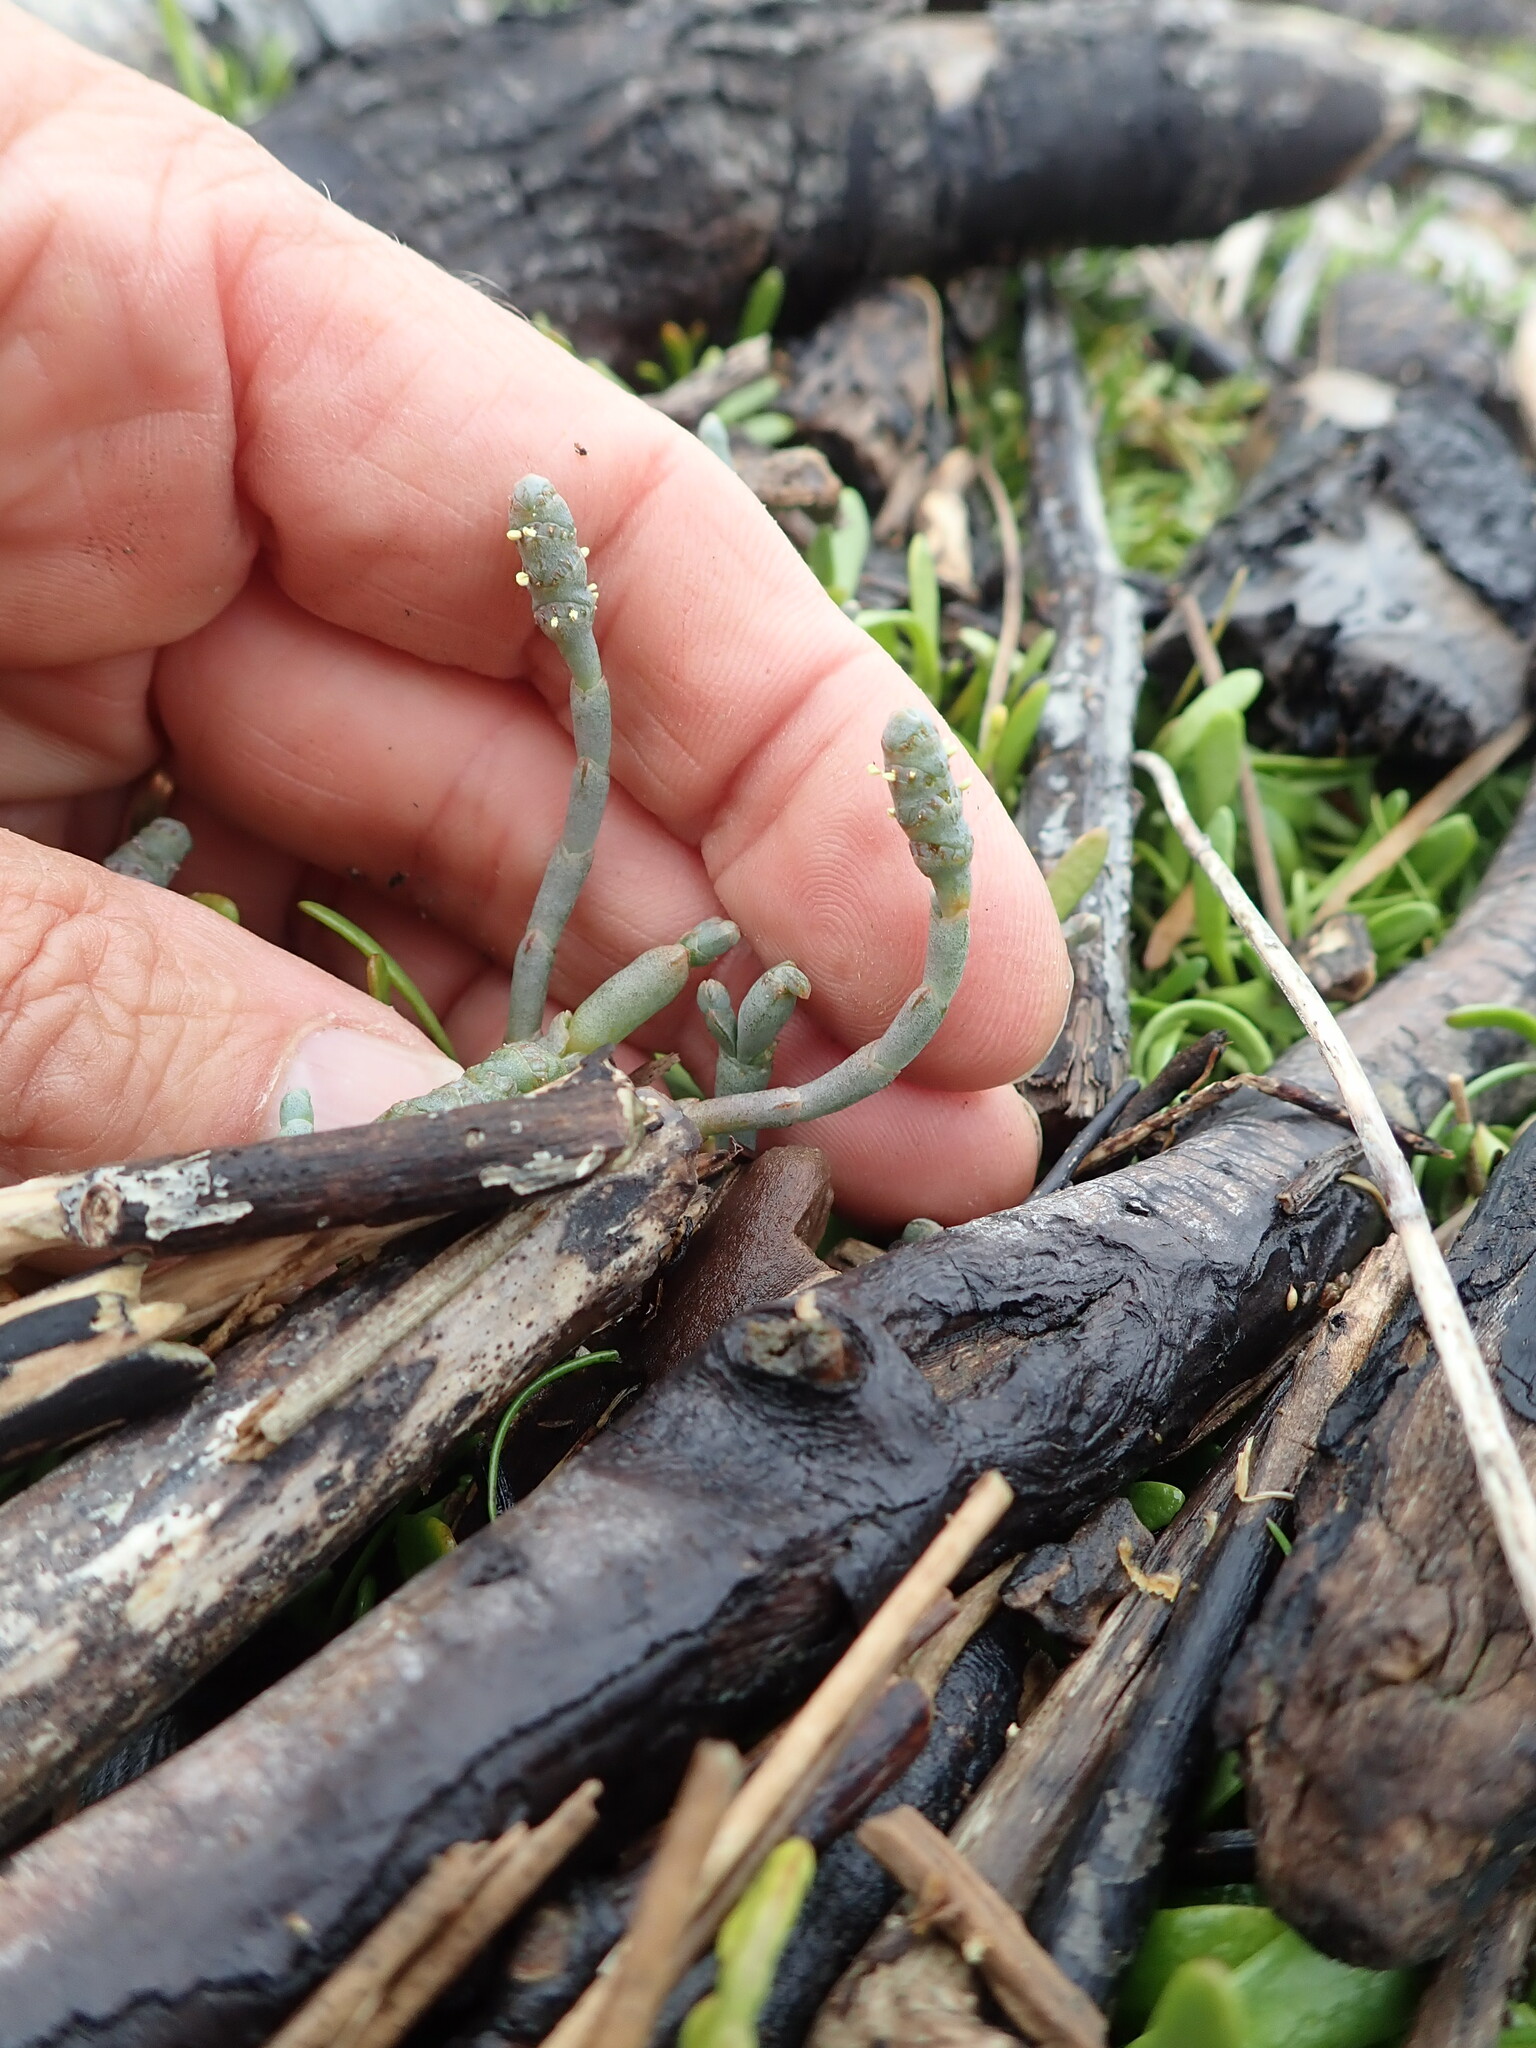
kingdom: Plantae
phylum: Tracheophyta
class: Magnoliopsida
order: Caryophyllales
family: Amaranthaceae
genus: Salicornia
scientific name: Salicornia quinqueflora
